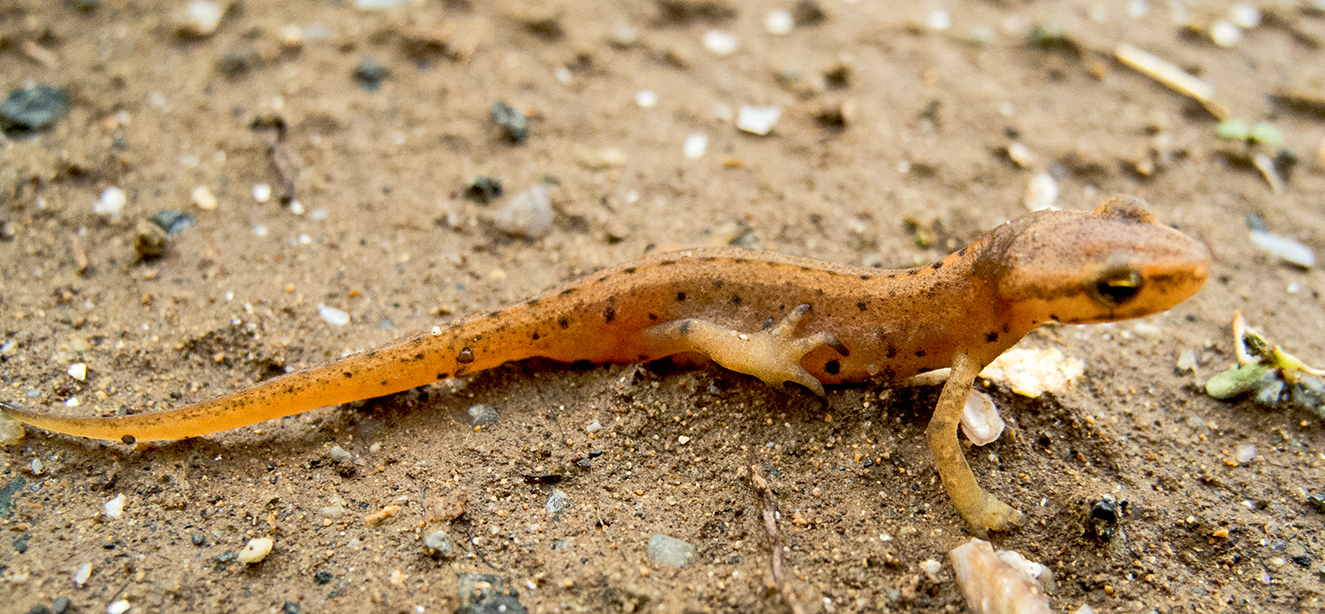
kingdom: Animalia
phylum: Chordata
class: Amphibia
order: Caudata
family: Salamandridae
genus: Lissotriton
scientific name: Lissotriton schmidtleri
